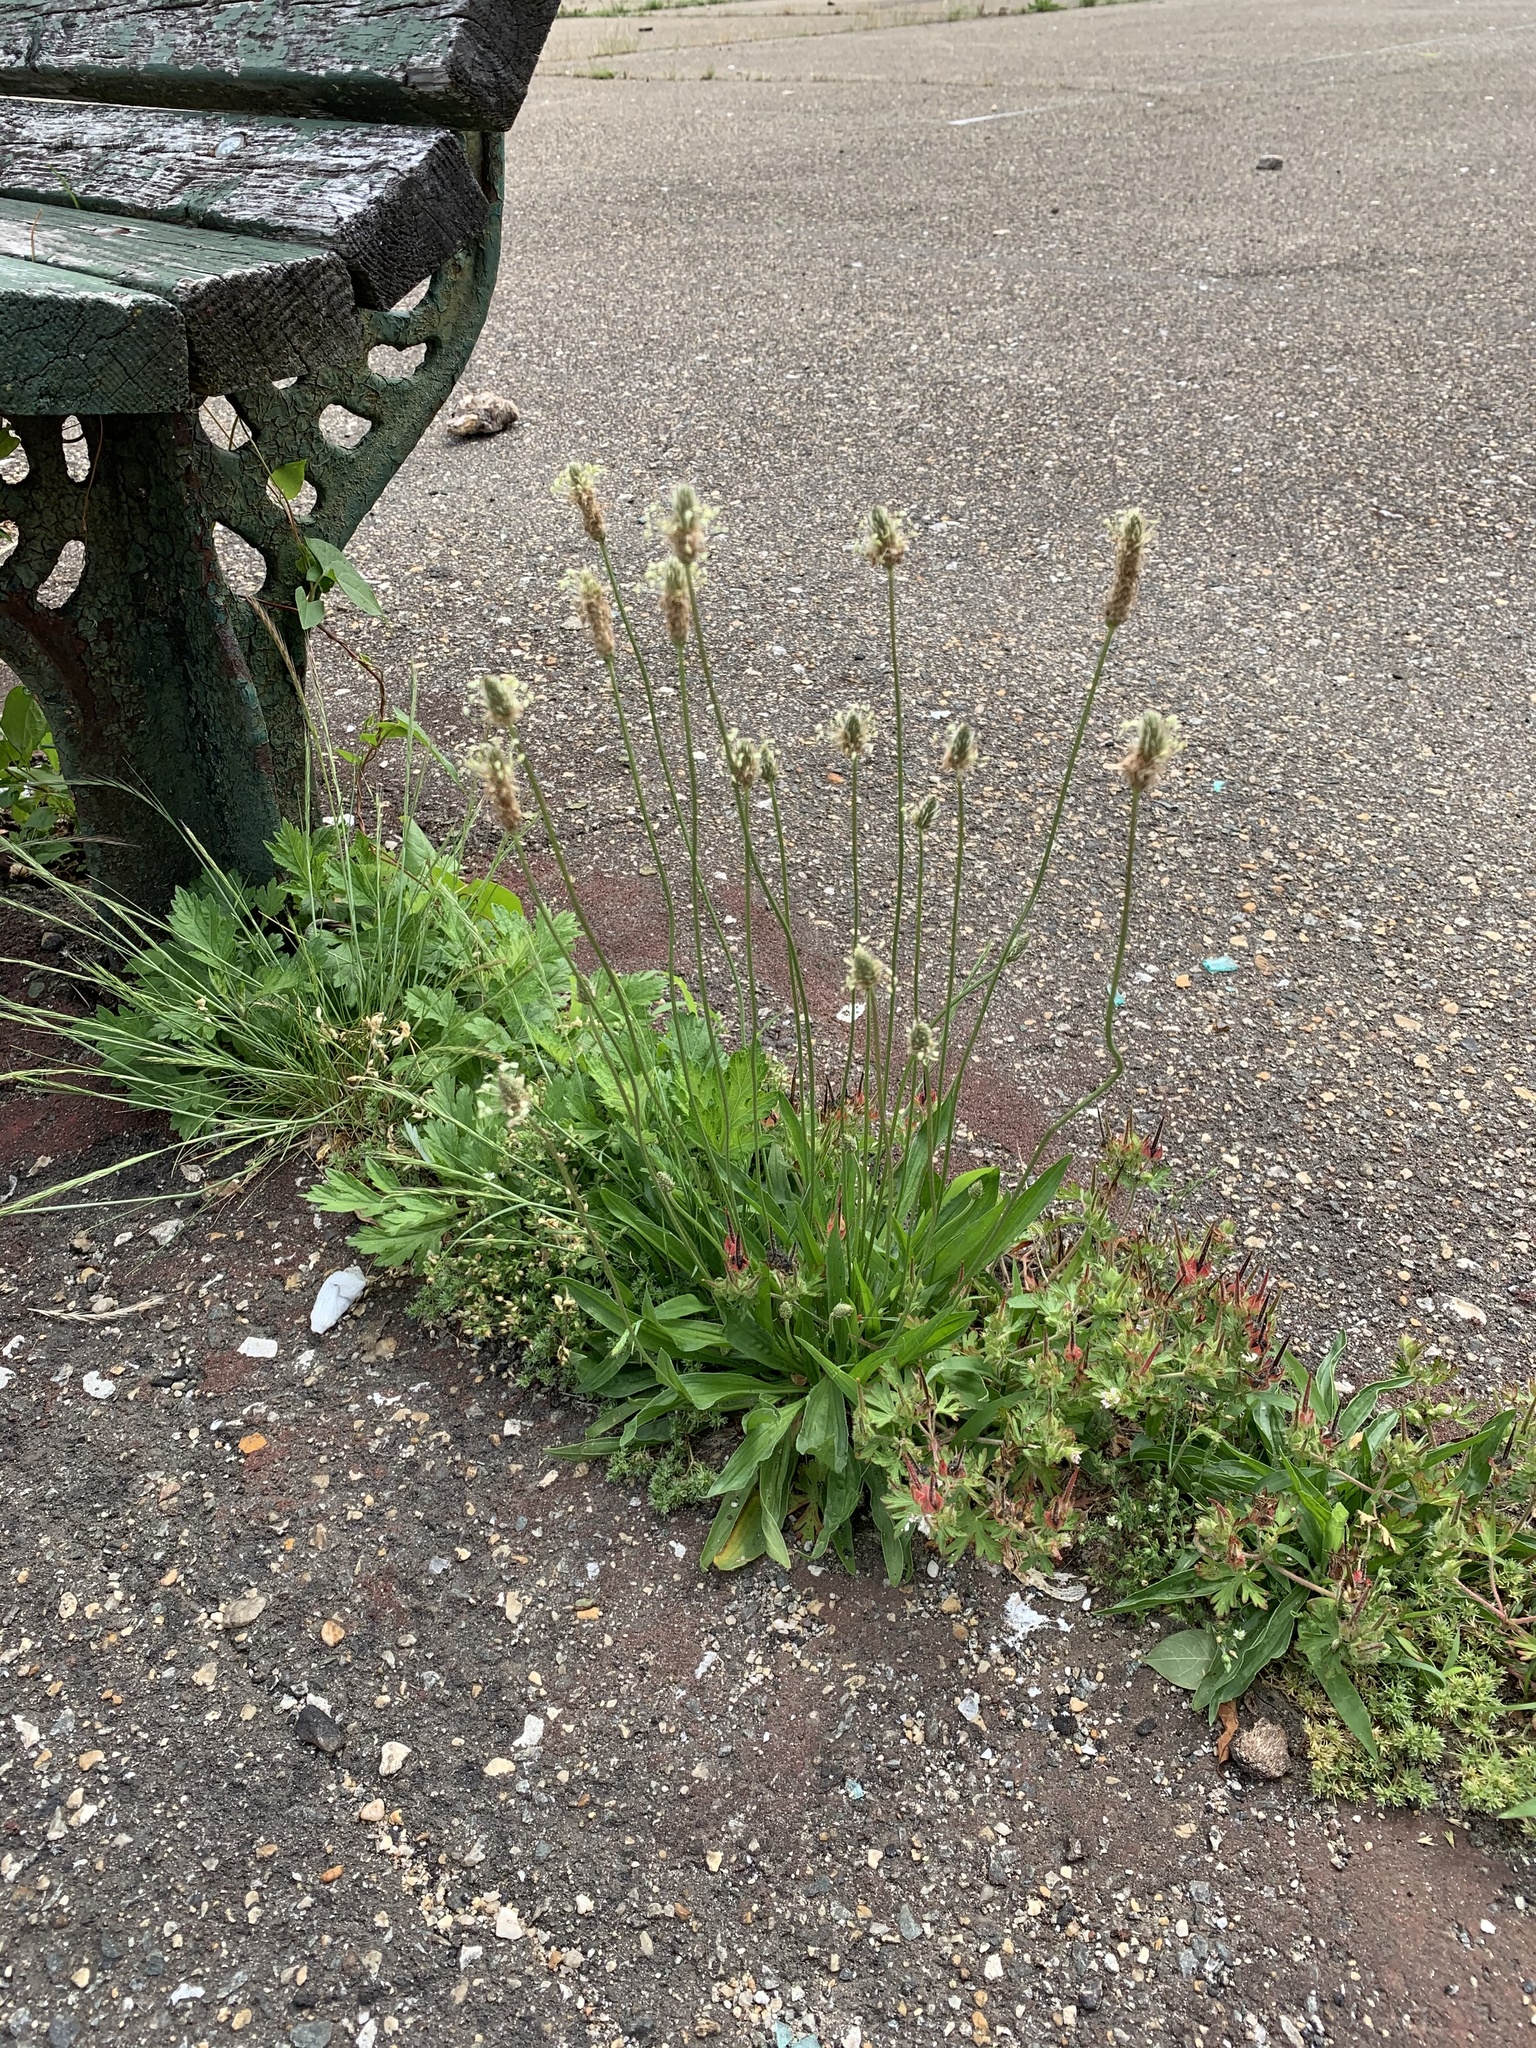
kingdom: Plantae
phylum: Tracheophyta
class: Magnoliopsida
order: Lamiales
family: Plantaginaceae
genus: Plantago
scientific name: Plantago lanceolata
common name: Ribwort plantain
